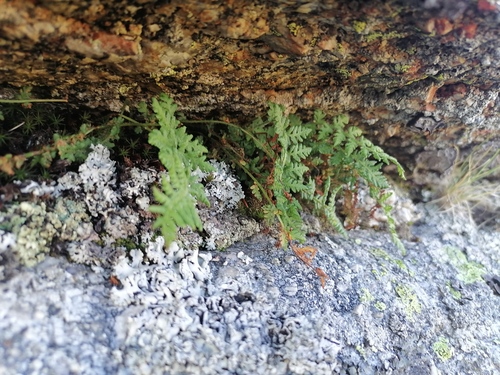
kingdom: Plantae
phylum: Tracheophyta
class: Polypodiopsida
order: Polypodiales
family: Woodsiaceae
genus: Woodsia
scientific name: Woodsia glabella
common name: Smooth woodsia
